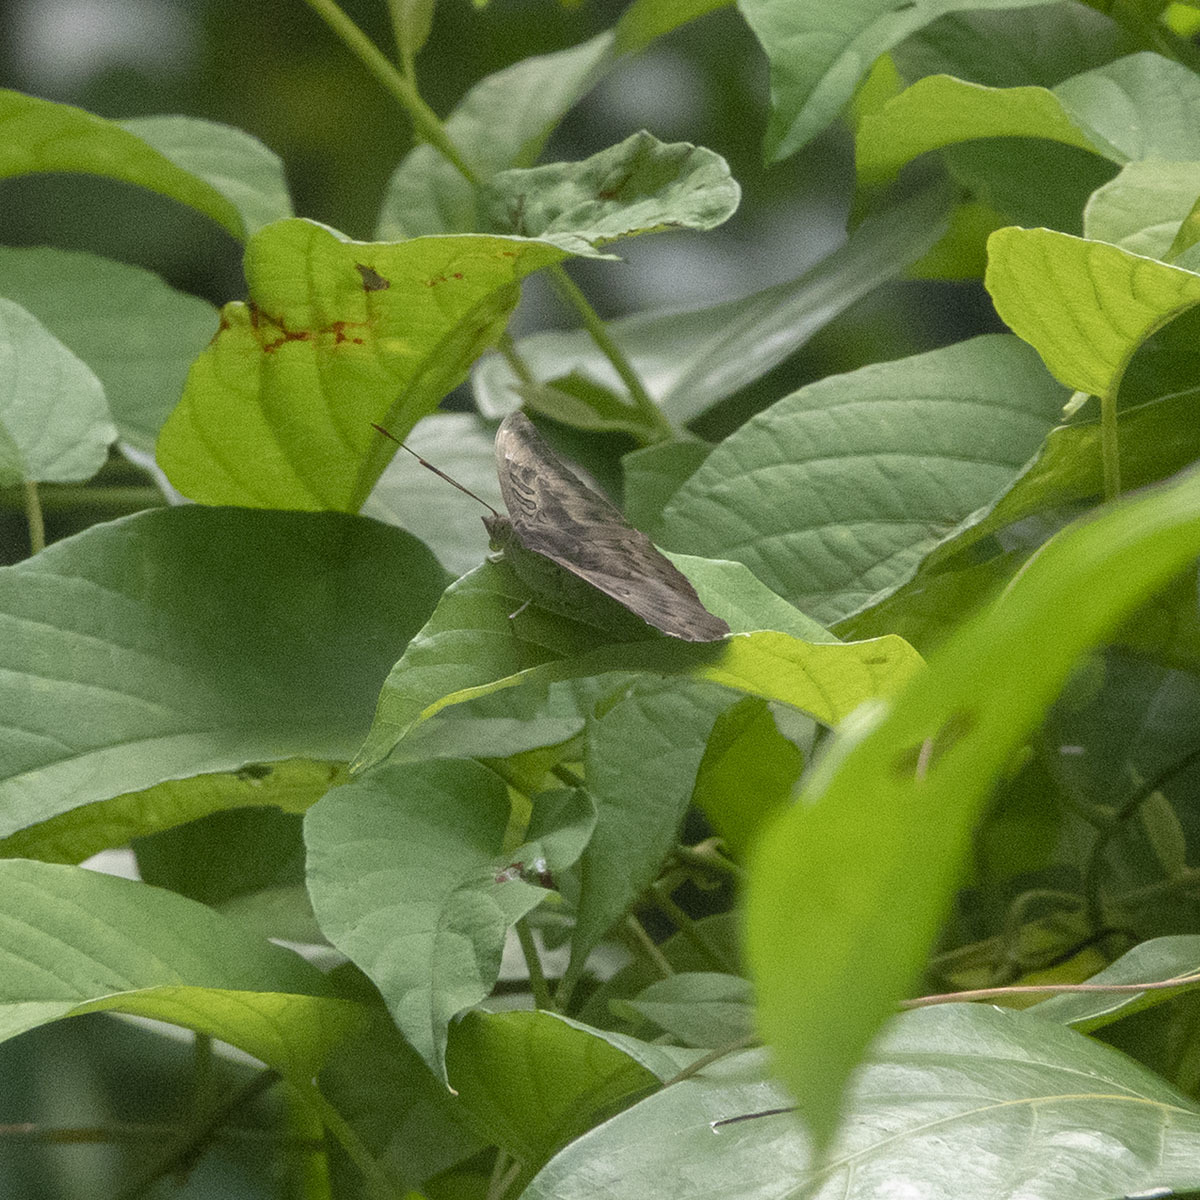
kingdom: Animalia
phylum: Arthropoda
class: Insecta
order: Lepidoptera
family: Nymphalidae
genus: Euthalia
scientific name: Euthalia aconthea
